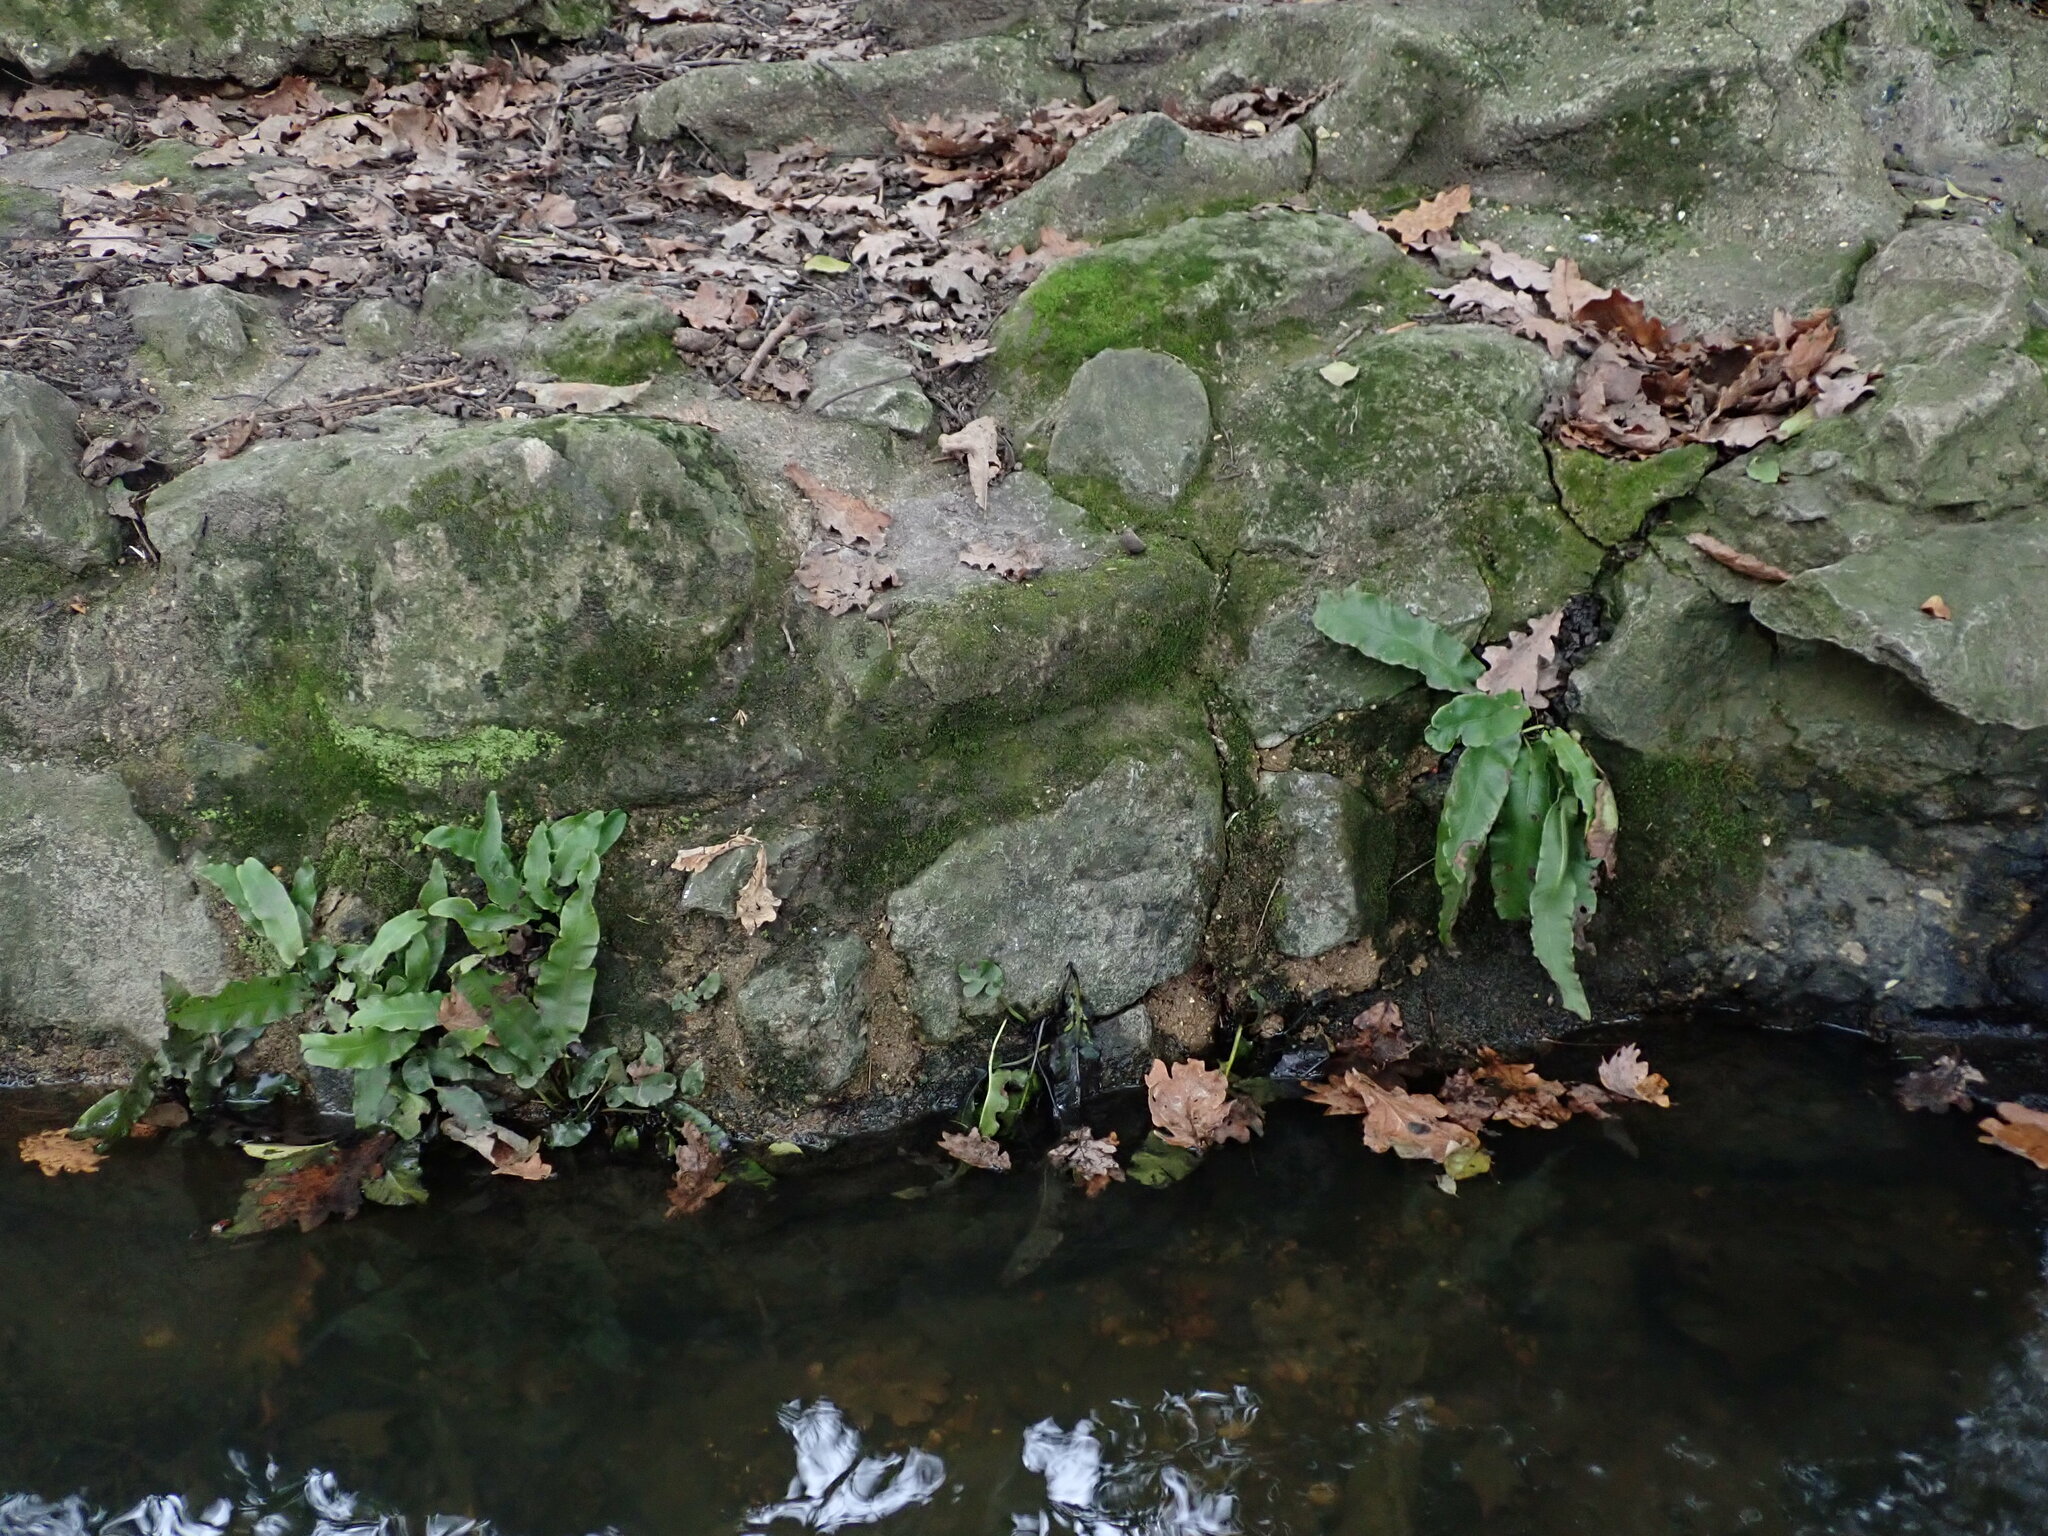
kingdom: Plantae
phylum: Tracheophyta
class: Polypodiopsida
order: Polypodiales
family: Aspleniaceae
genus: Asplenium
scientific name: Asplenium scolopendrium
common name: Hart's-tongue fern
